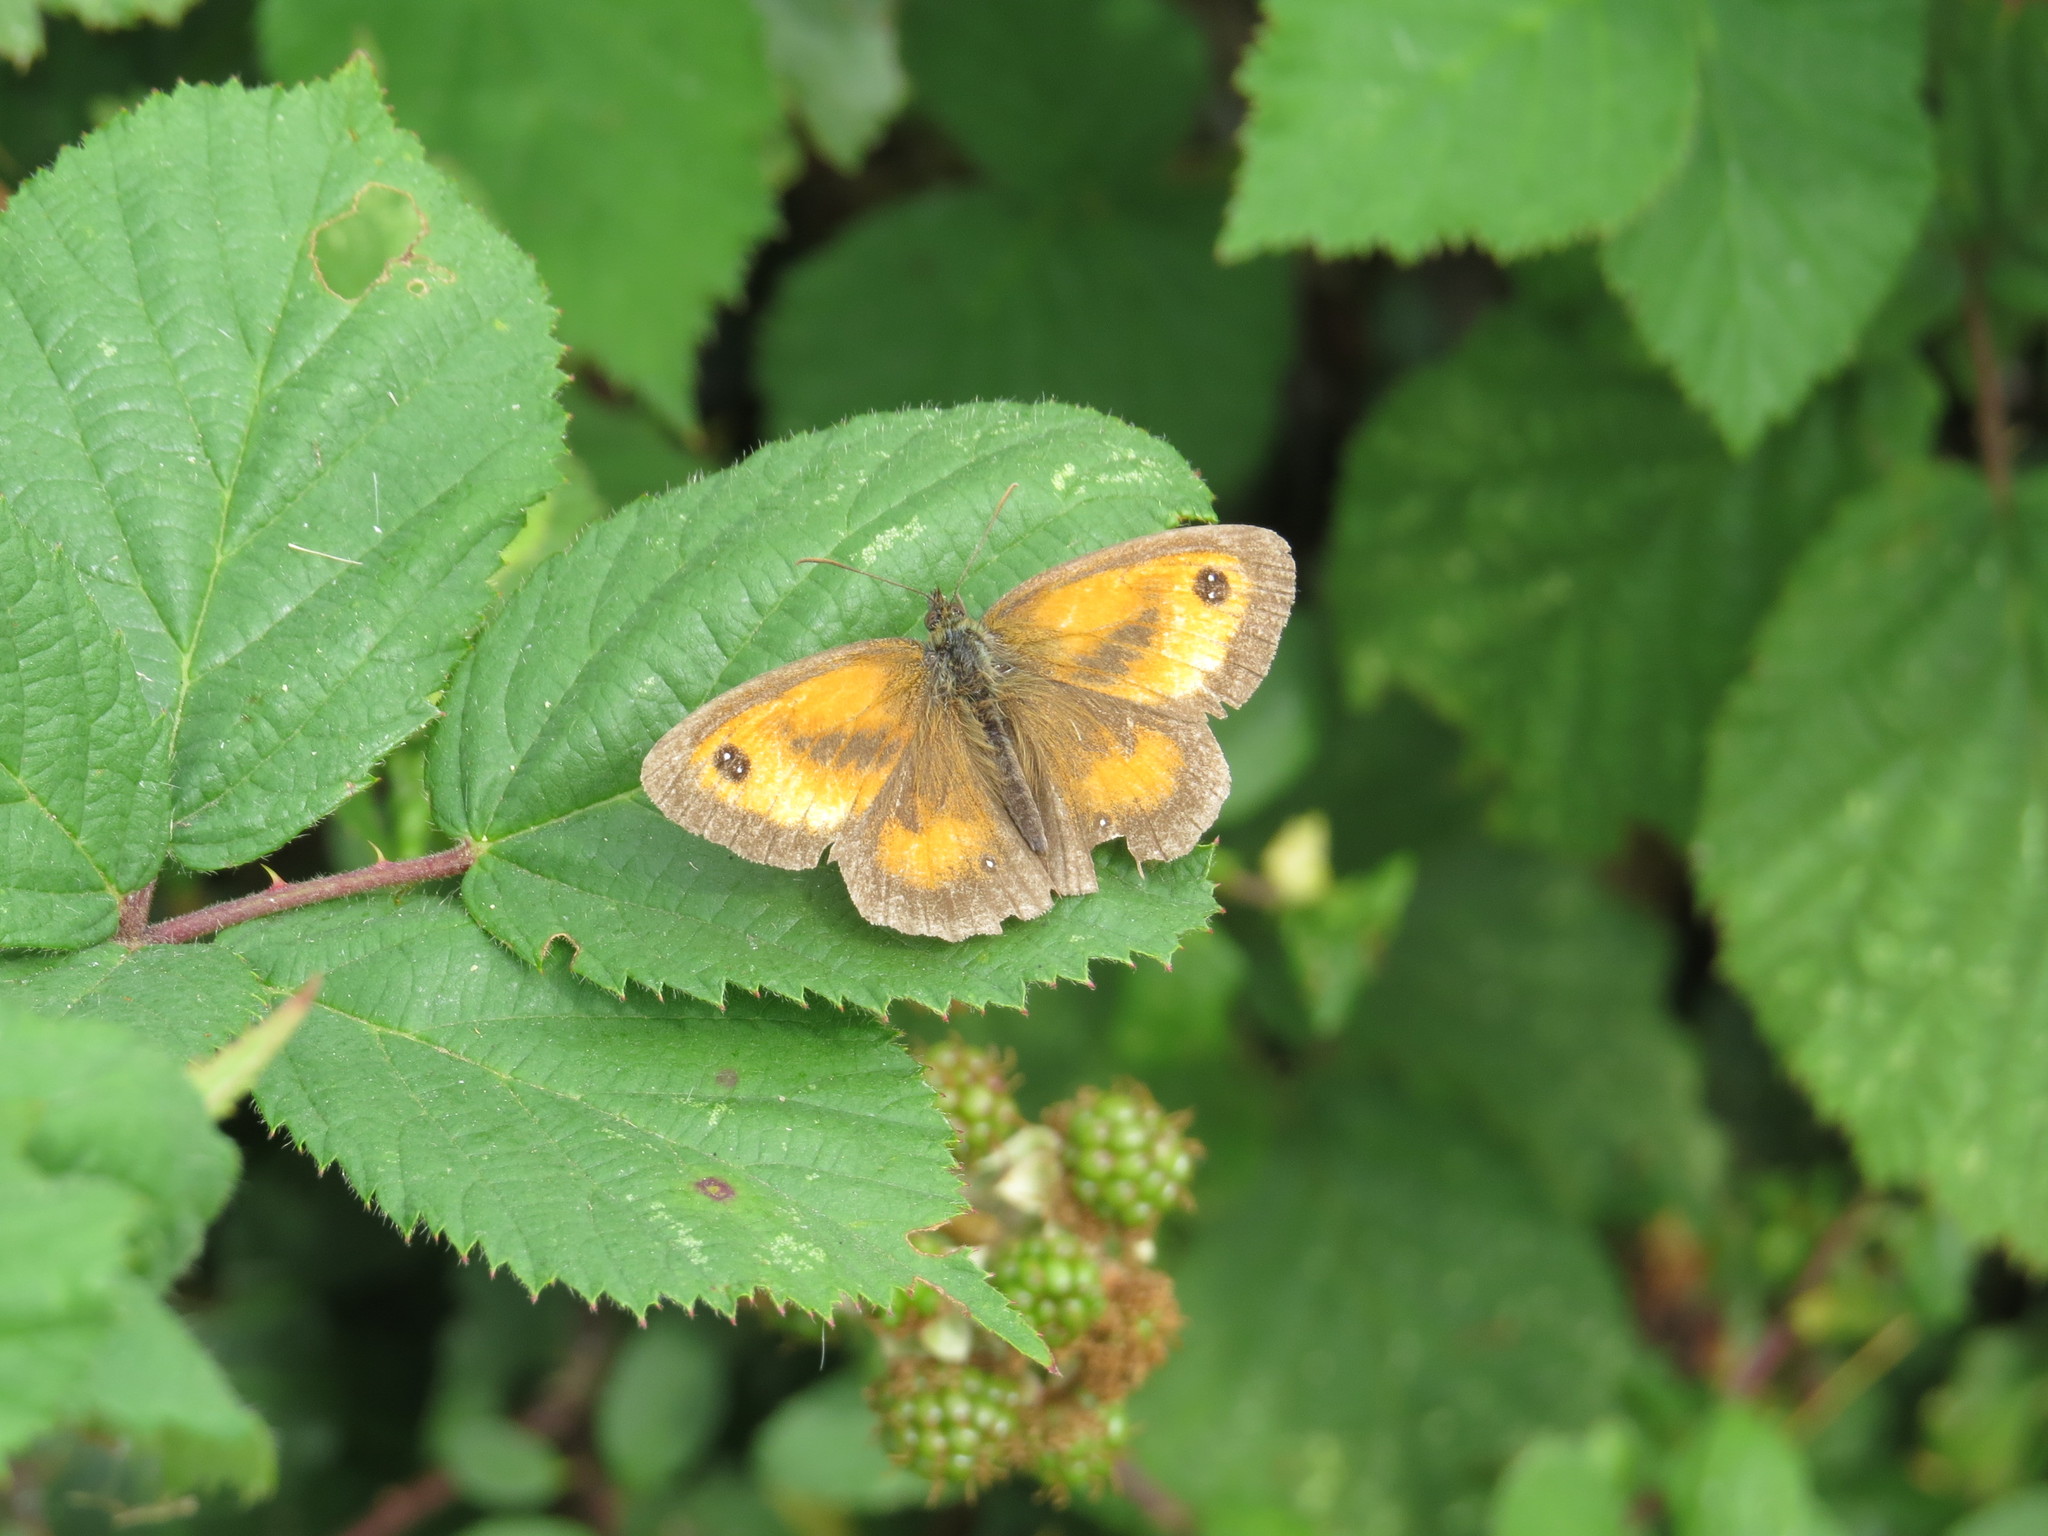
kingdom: Animalia
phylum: Arthropoda
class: Insecta
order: Lepidoptera
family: Nymphalidae
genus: Pyronia
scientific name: Pyronia tithonus
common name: Gatekeeper
